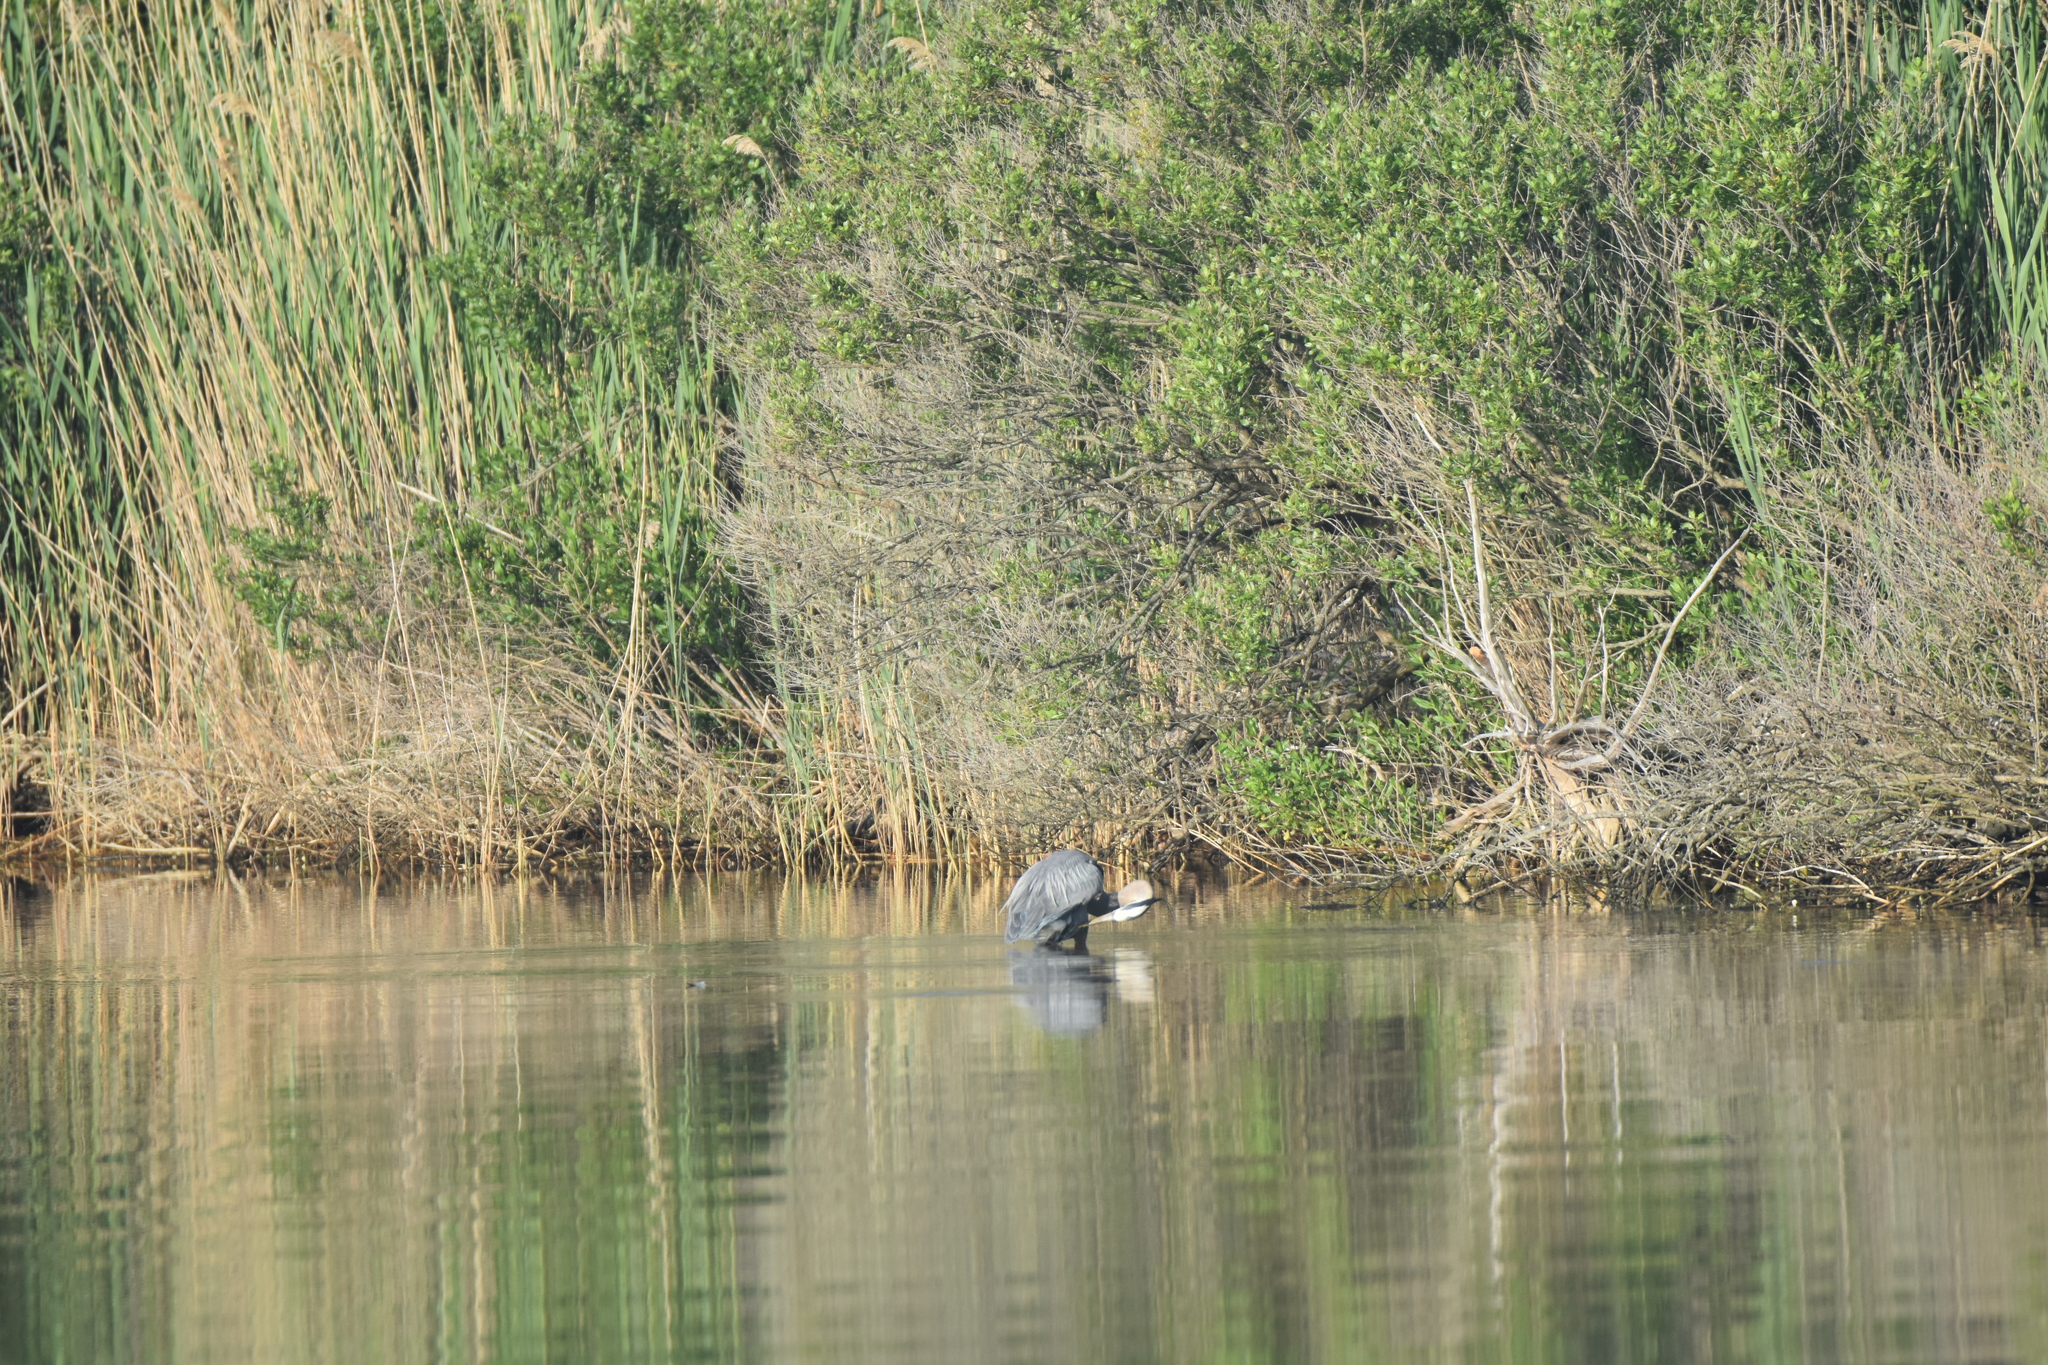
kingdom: Animalia
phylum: Chordata
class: Aves
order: Pelecaniformes
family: Ardeidae
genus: Ardea
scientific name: Ardea herodias
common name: Great blue heron
